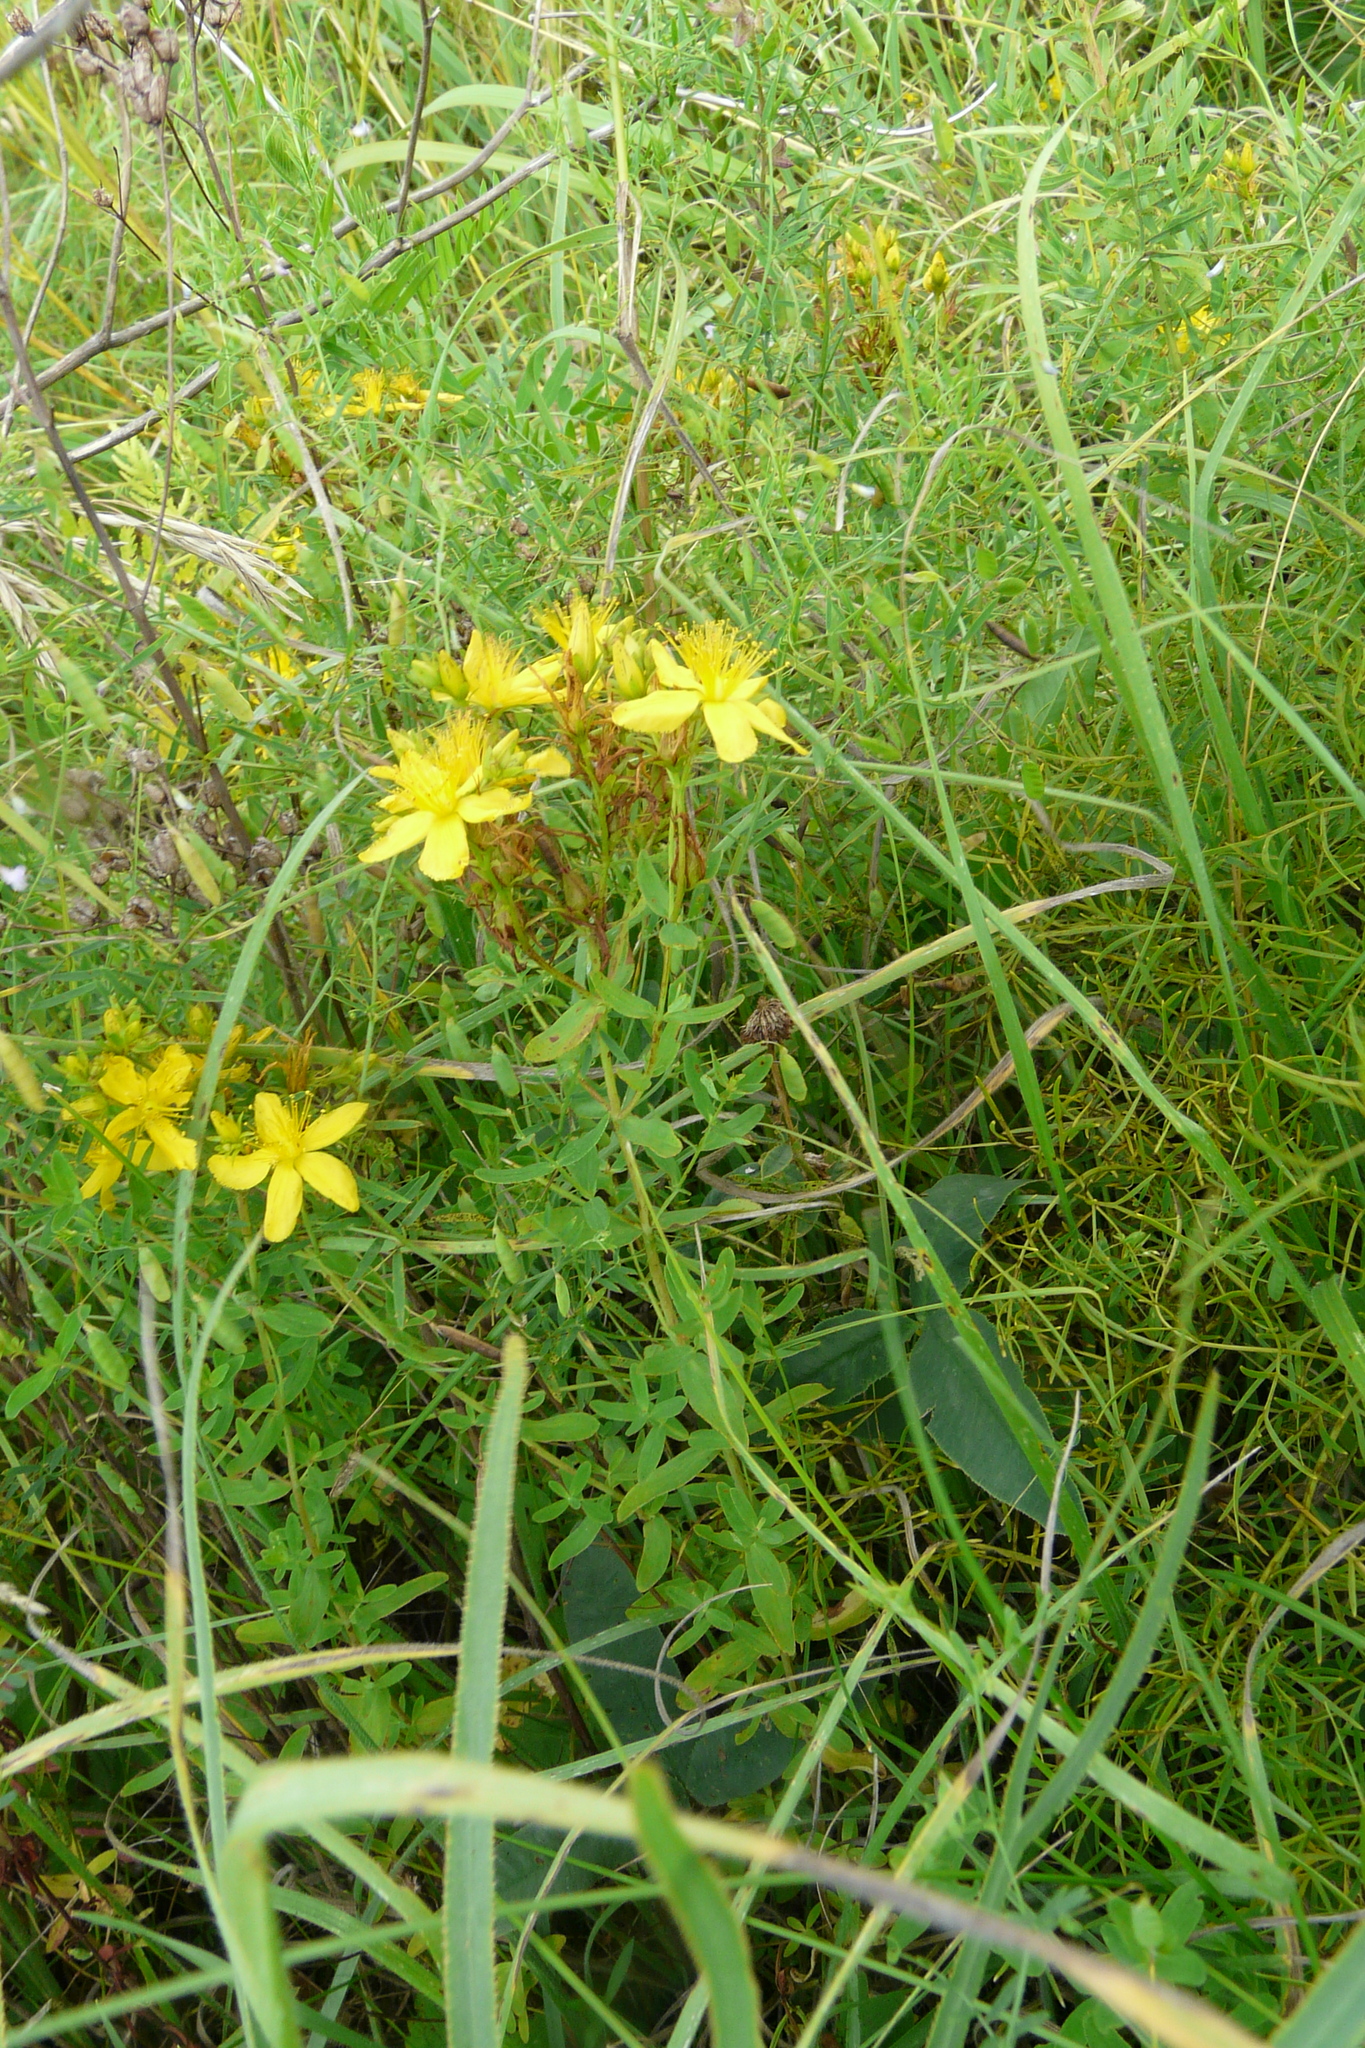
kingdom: Plantae
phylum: Tracheophyta
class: Magnoliopsida
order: Malpighiales
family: Hypericaceae
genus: Hypericum
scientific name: Hypericum perforatum
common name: Common st. johnswort
